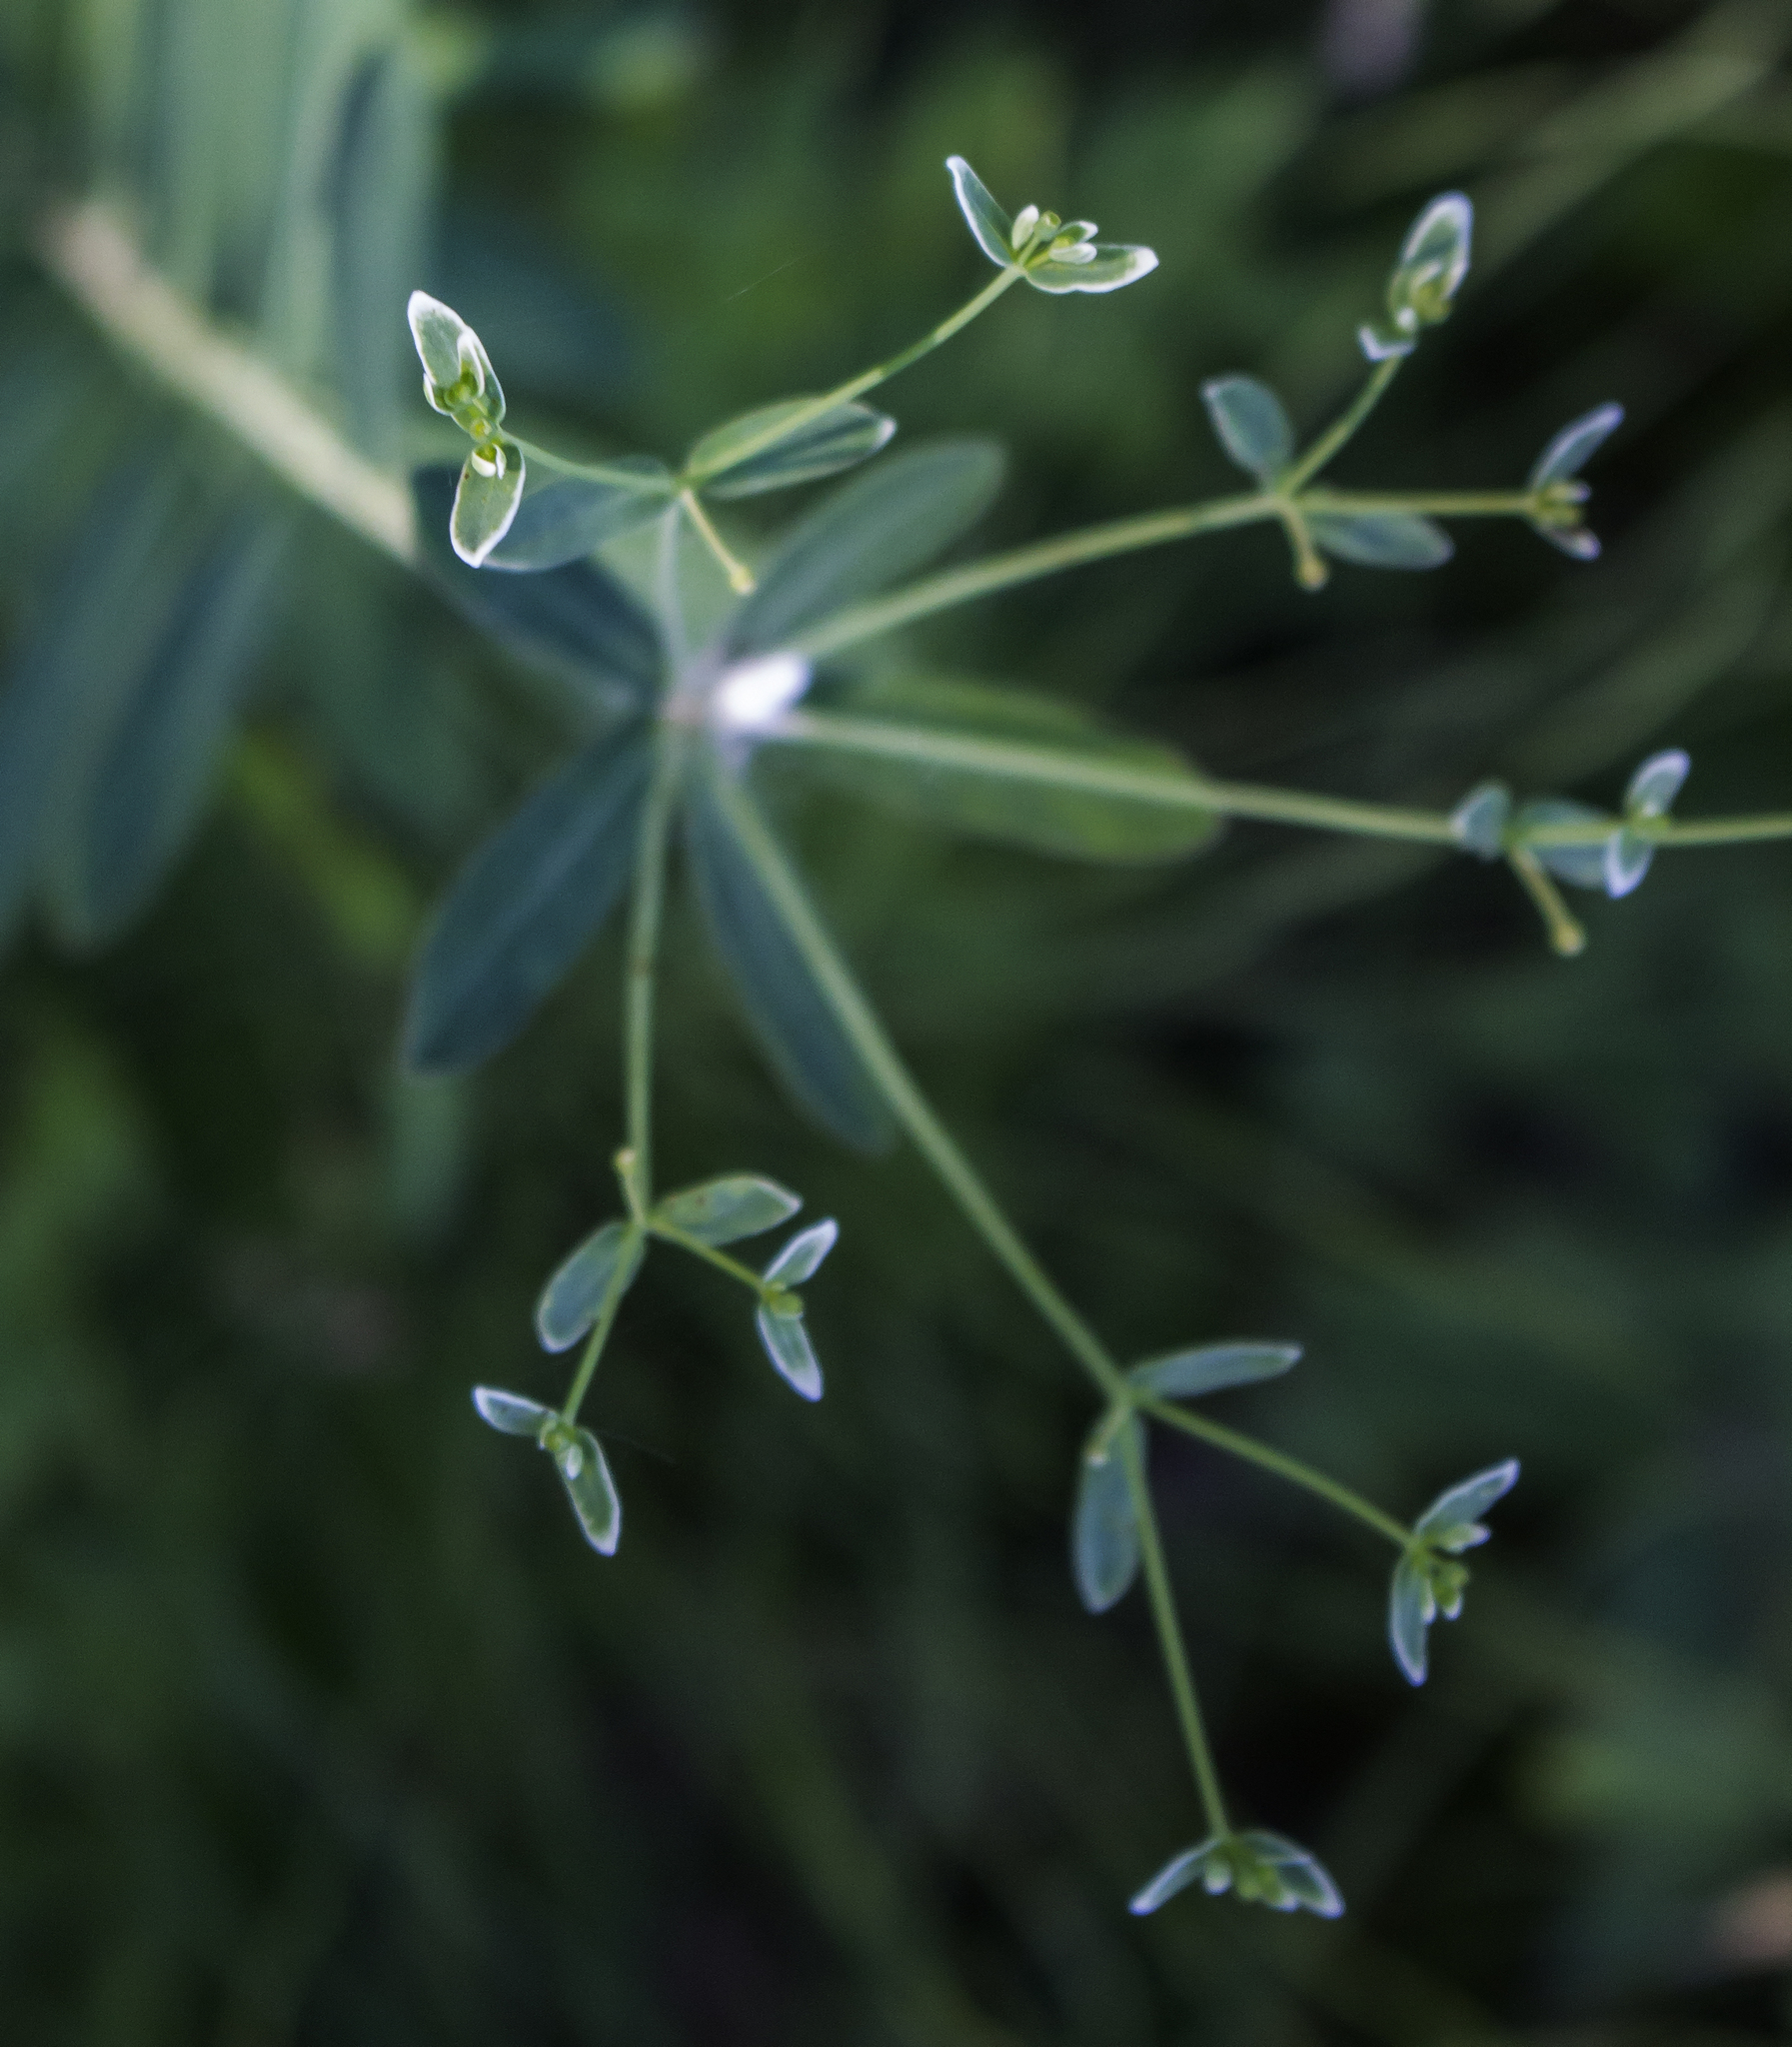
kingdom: Plantae
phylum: Tracheophyta
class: Magnoliopsida
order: Malpighiales
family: Euphorbiaceae
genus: Euphorbia
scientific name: Euphorbia corollata
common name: Flowering spurge
